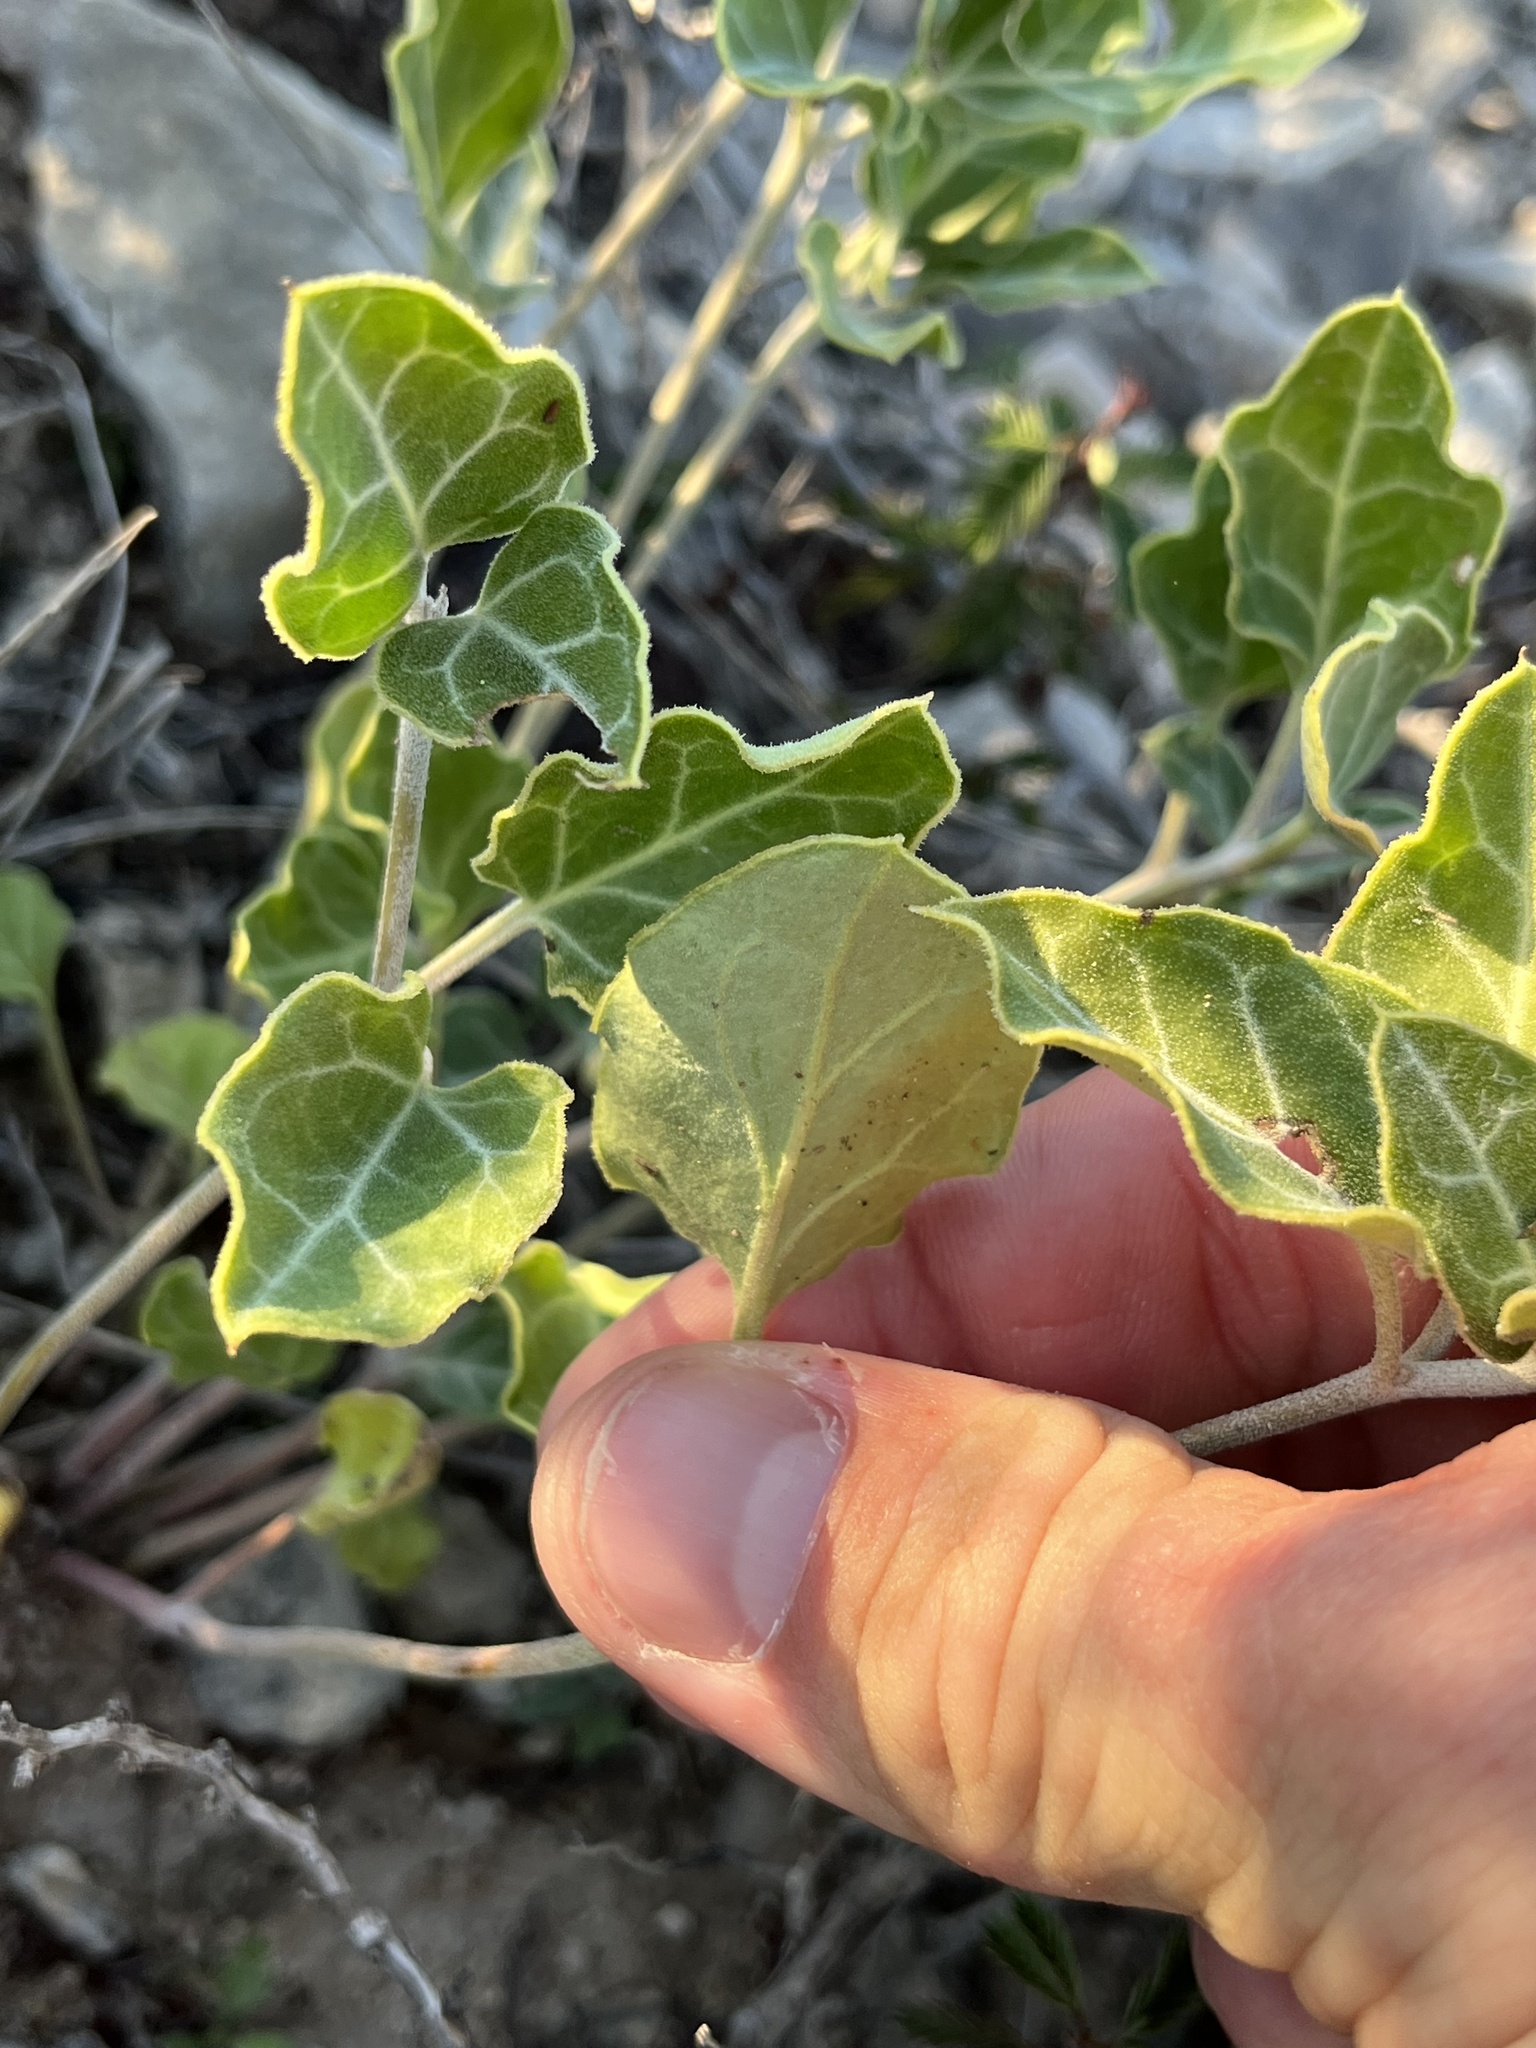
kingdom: Plantae
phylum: Tracheophyta
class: Magnoliopsida
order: Caryophyllales
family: Nyctaginaceae
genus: Acleisanthes
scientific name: Acleisanthes crassifolia
